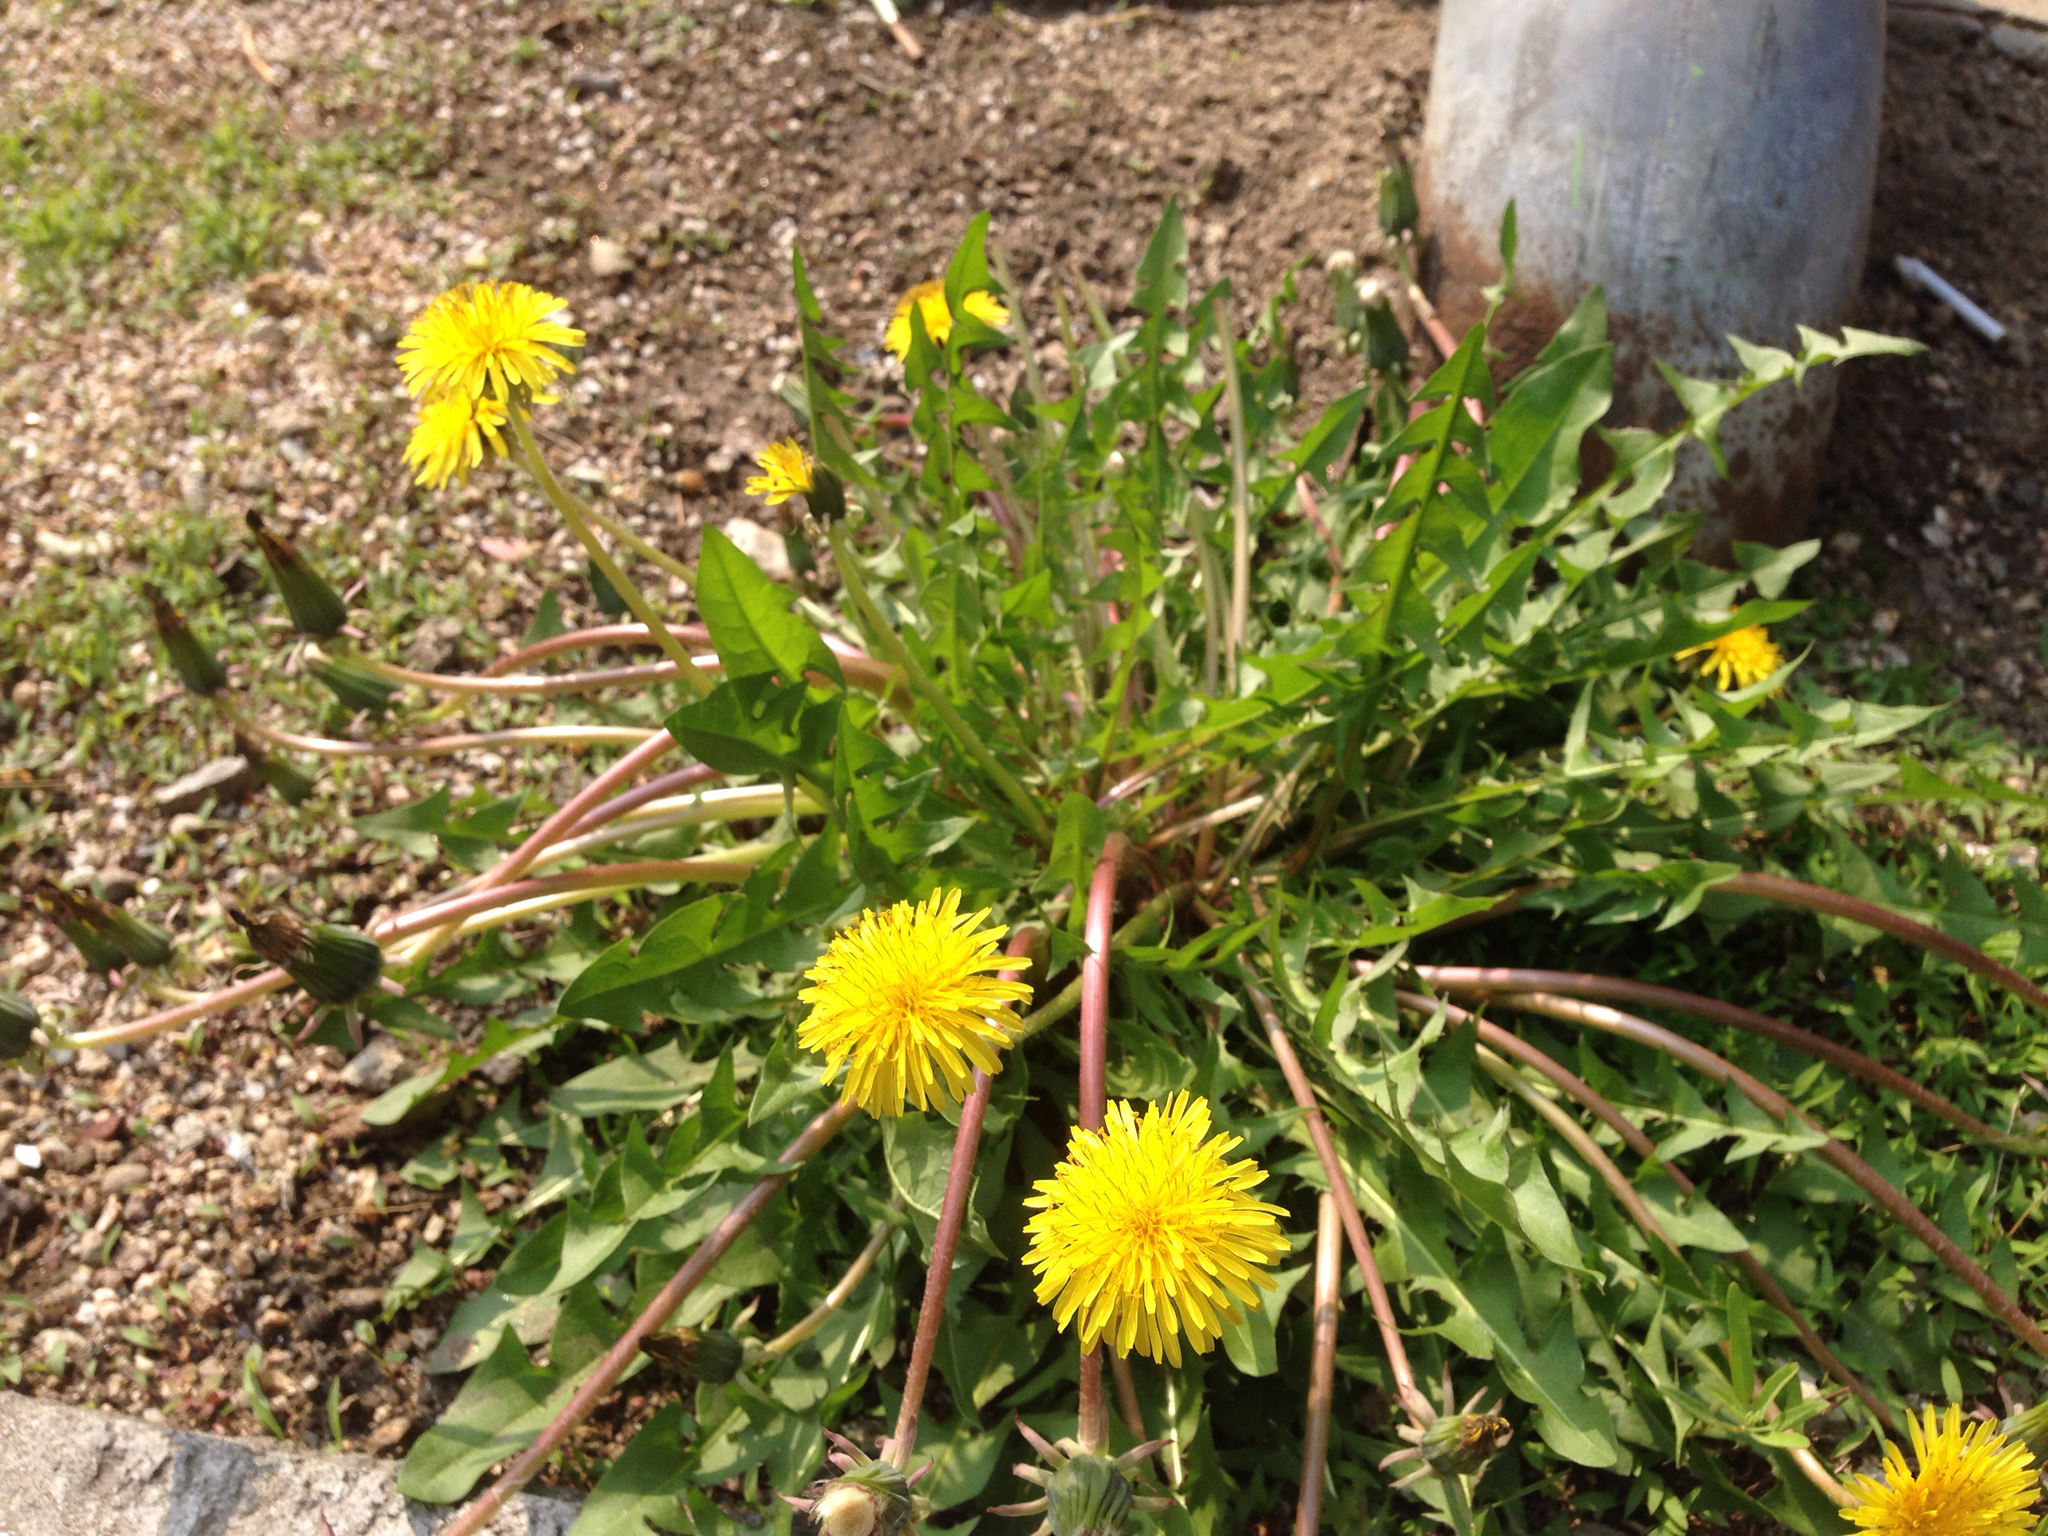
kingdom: Plantae
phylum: Tracheophyta
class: Magnoliopsida
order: Asterales
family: Asteraceae
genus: Taraxacum
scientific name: Taraxacum officinale
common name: Common dandelion
